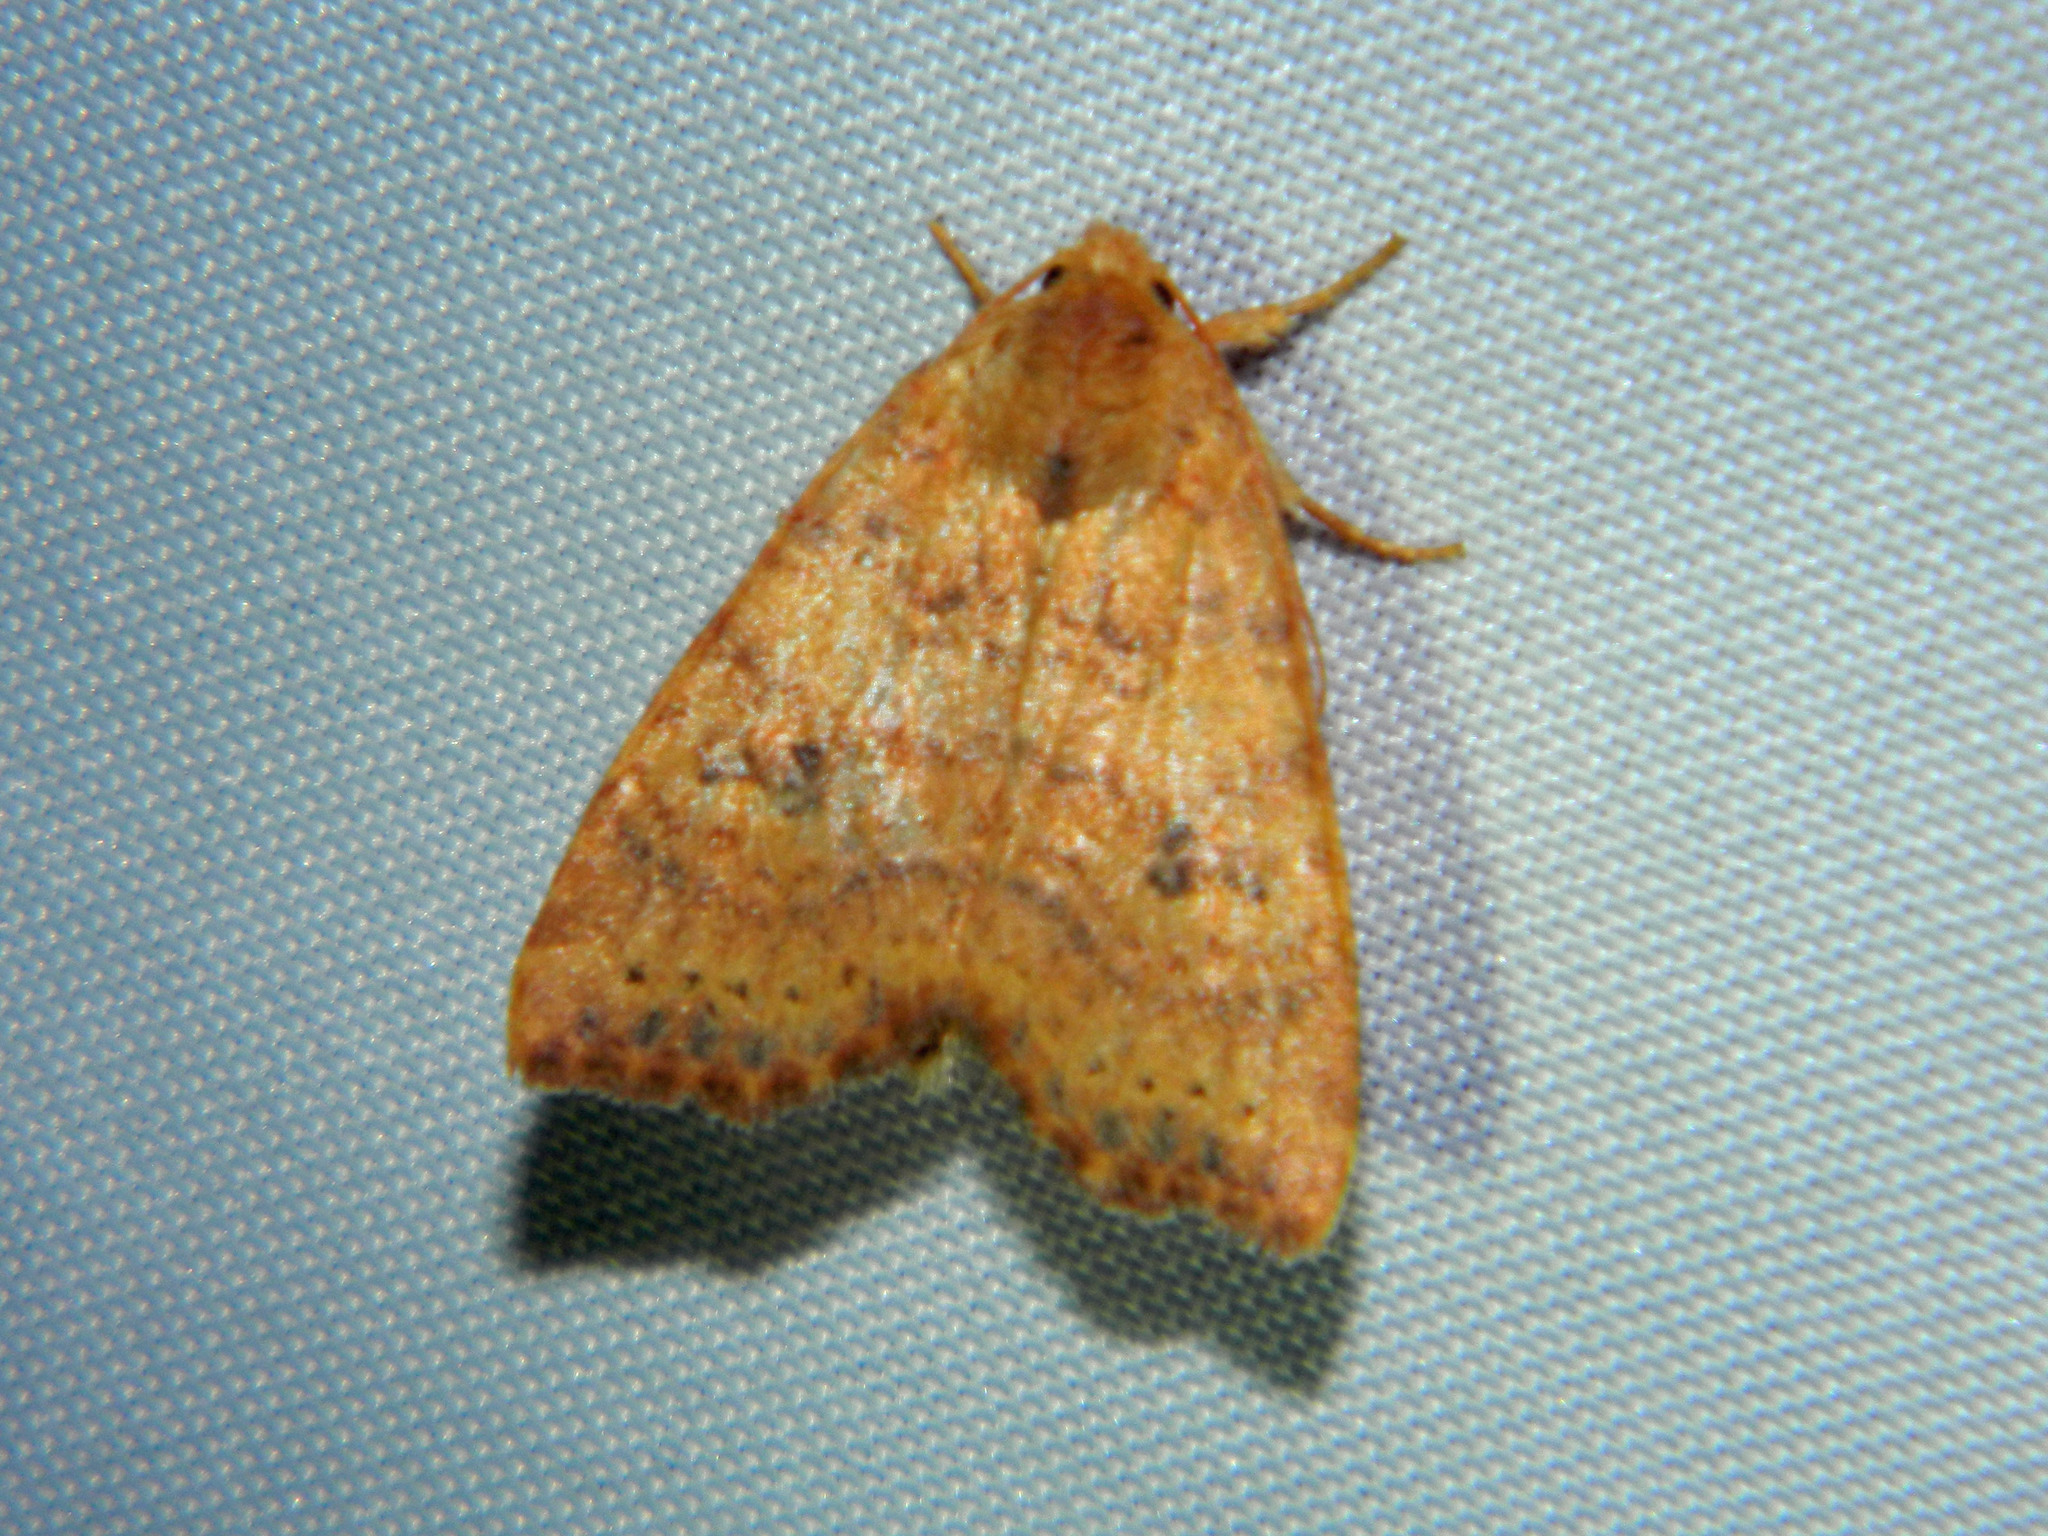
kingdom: Animalia
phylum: Arthropoda
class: Insecta
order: Lepidoptera
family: Noctuidae
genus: Anathix
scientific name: Anathix ralla
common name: Dotted sallow
